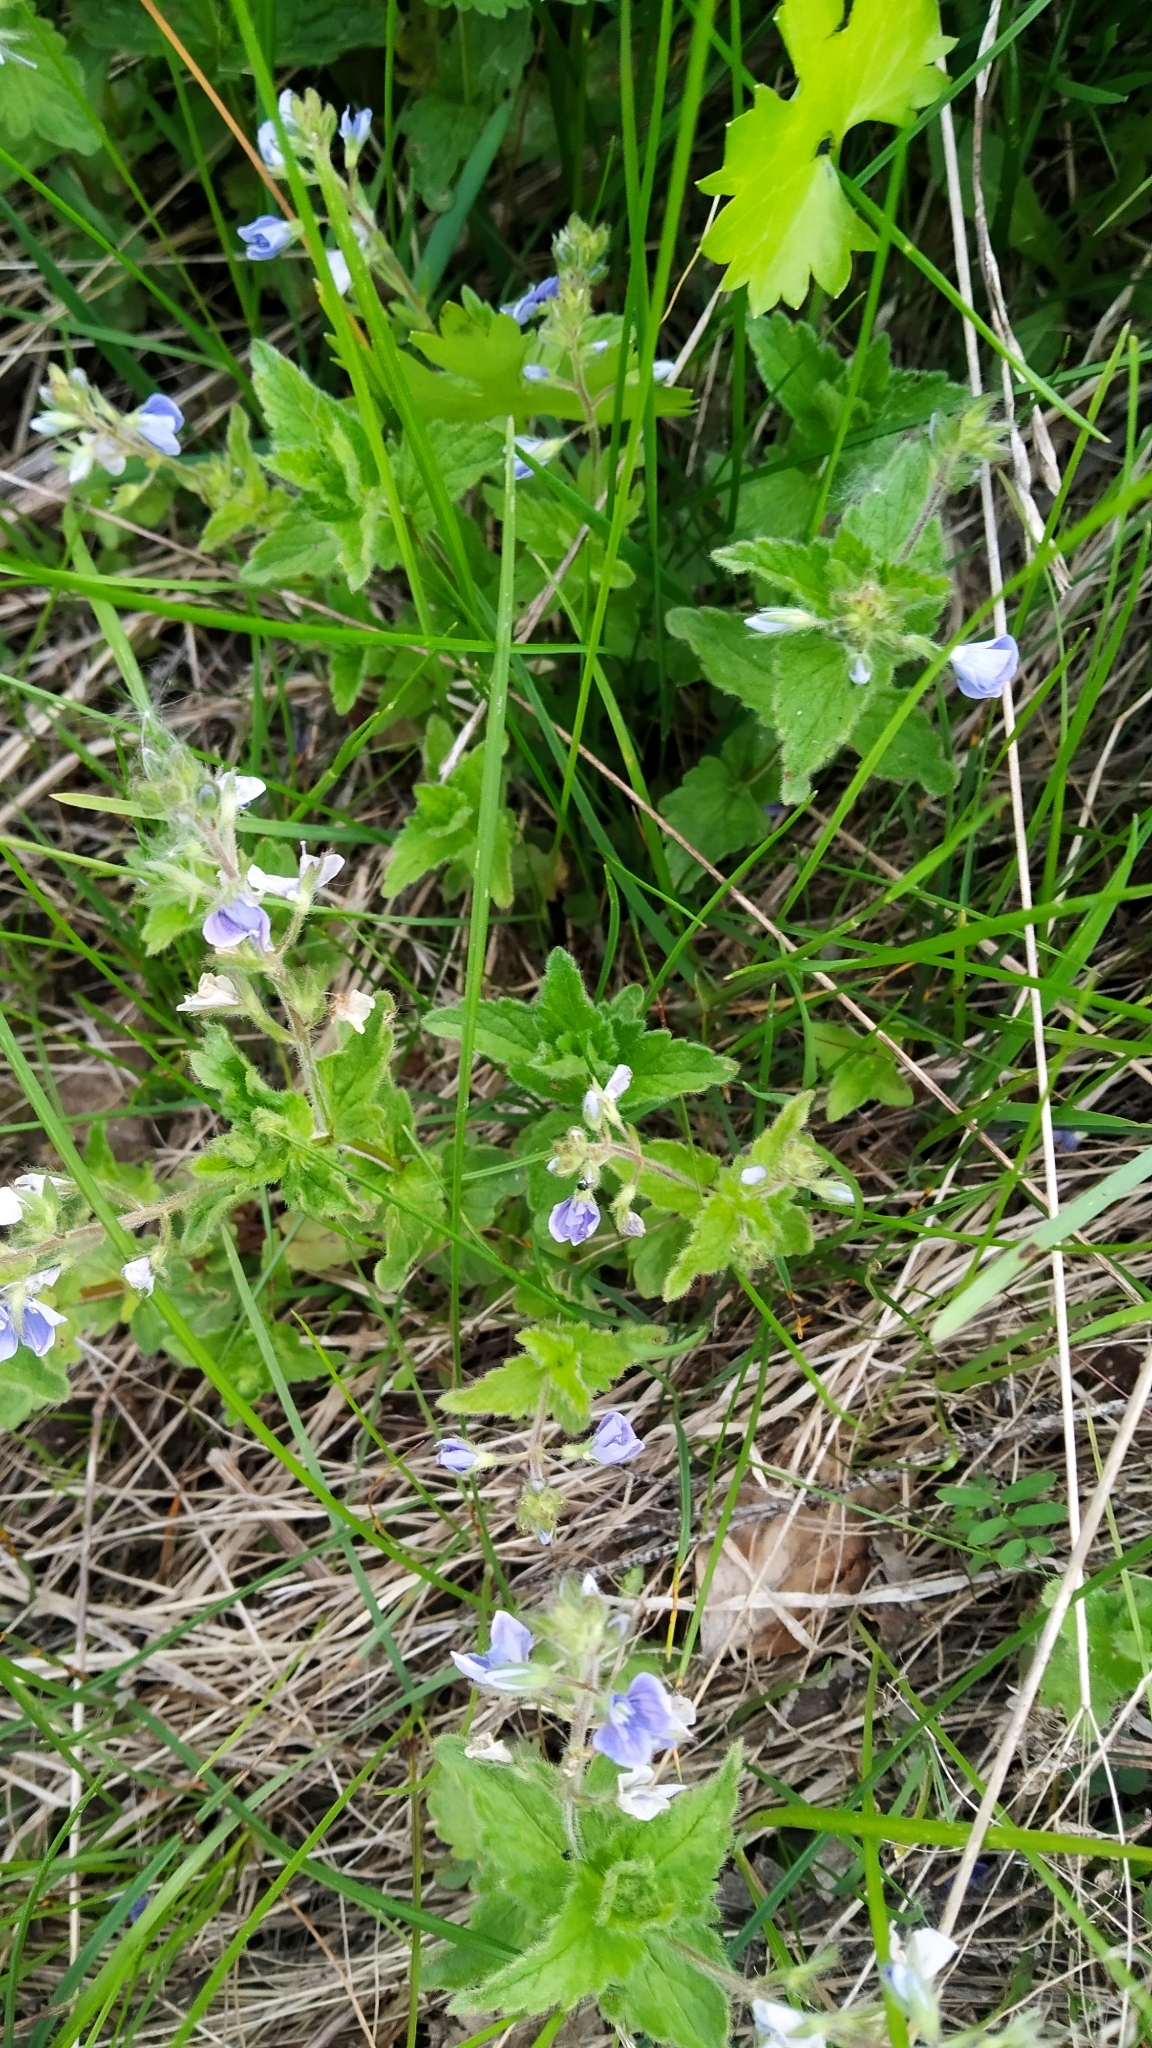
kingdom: Plantae
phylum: Tracheophyta
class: Magnoliopsida
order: Lamiales
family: Plantaginaceae
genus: Veronica
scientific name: Veronica chamaedrys
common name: Germander speedwell
